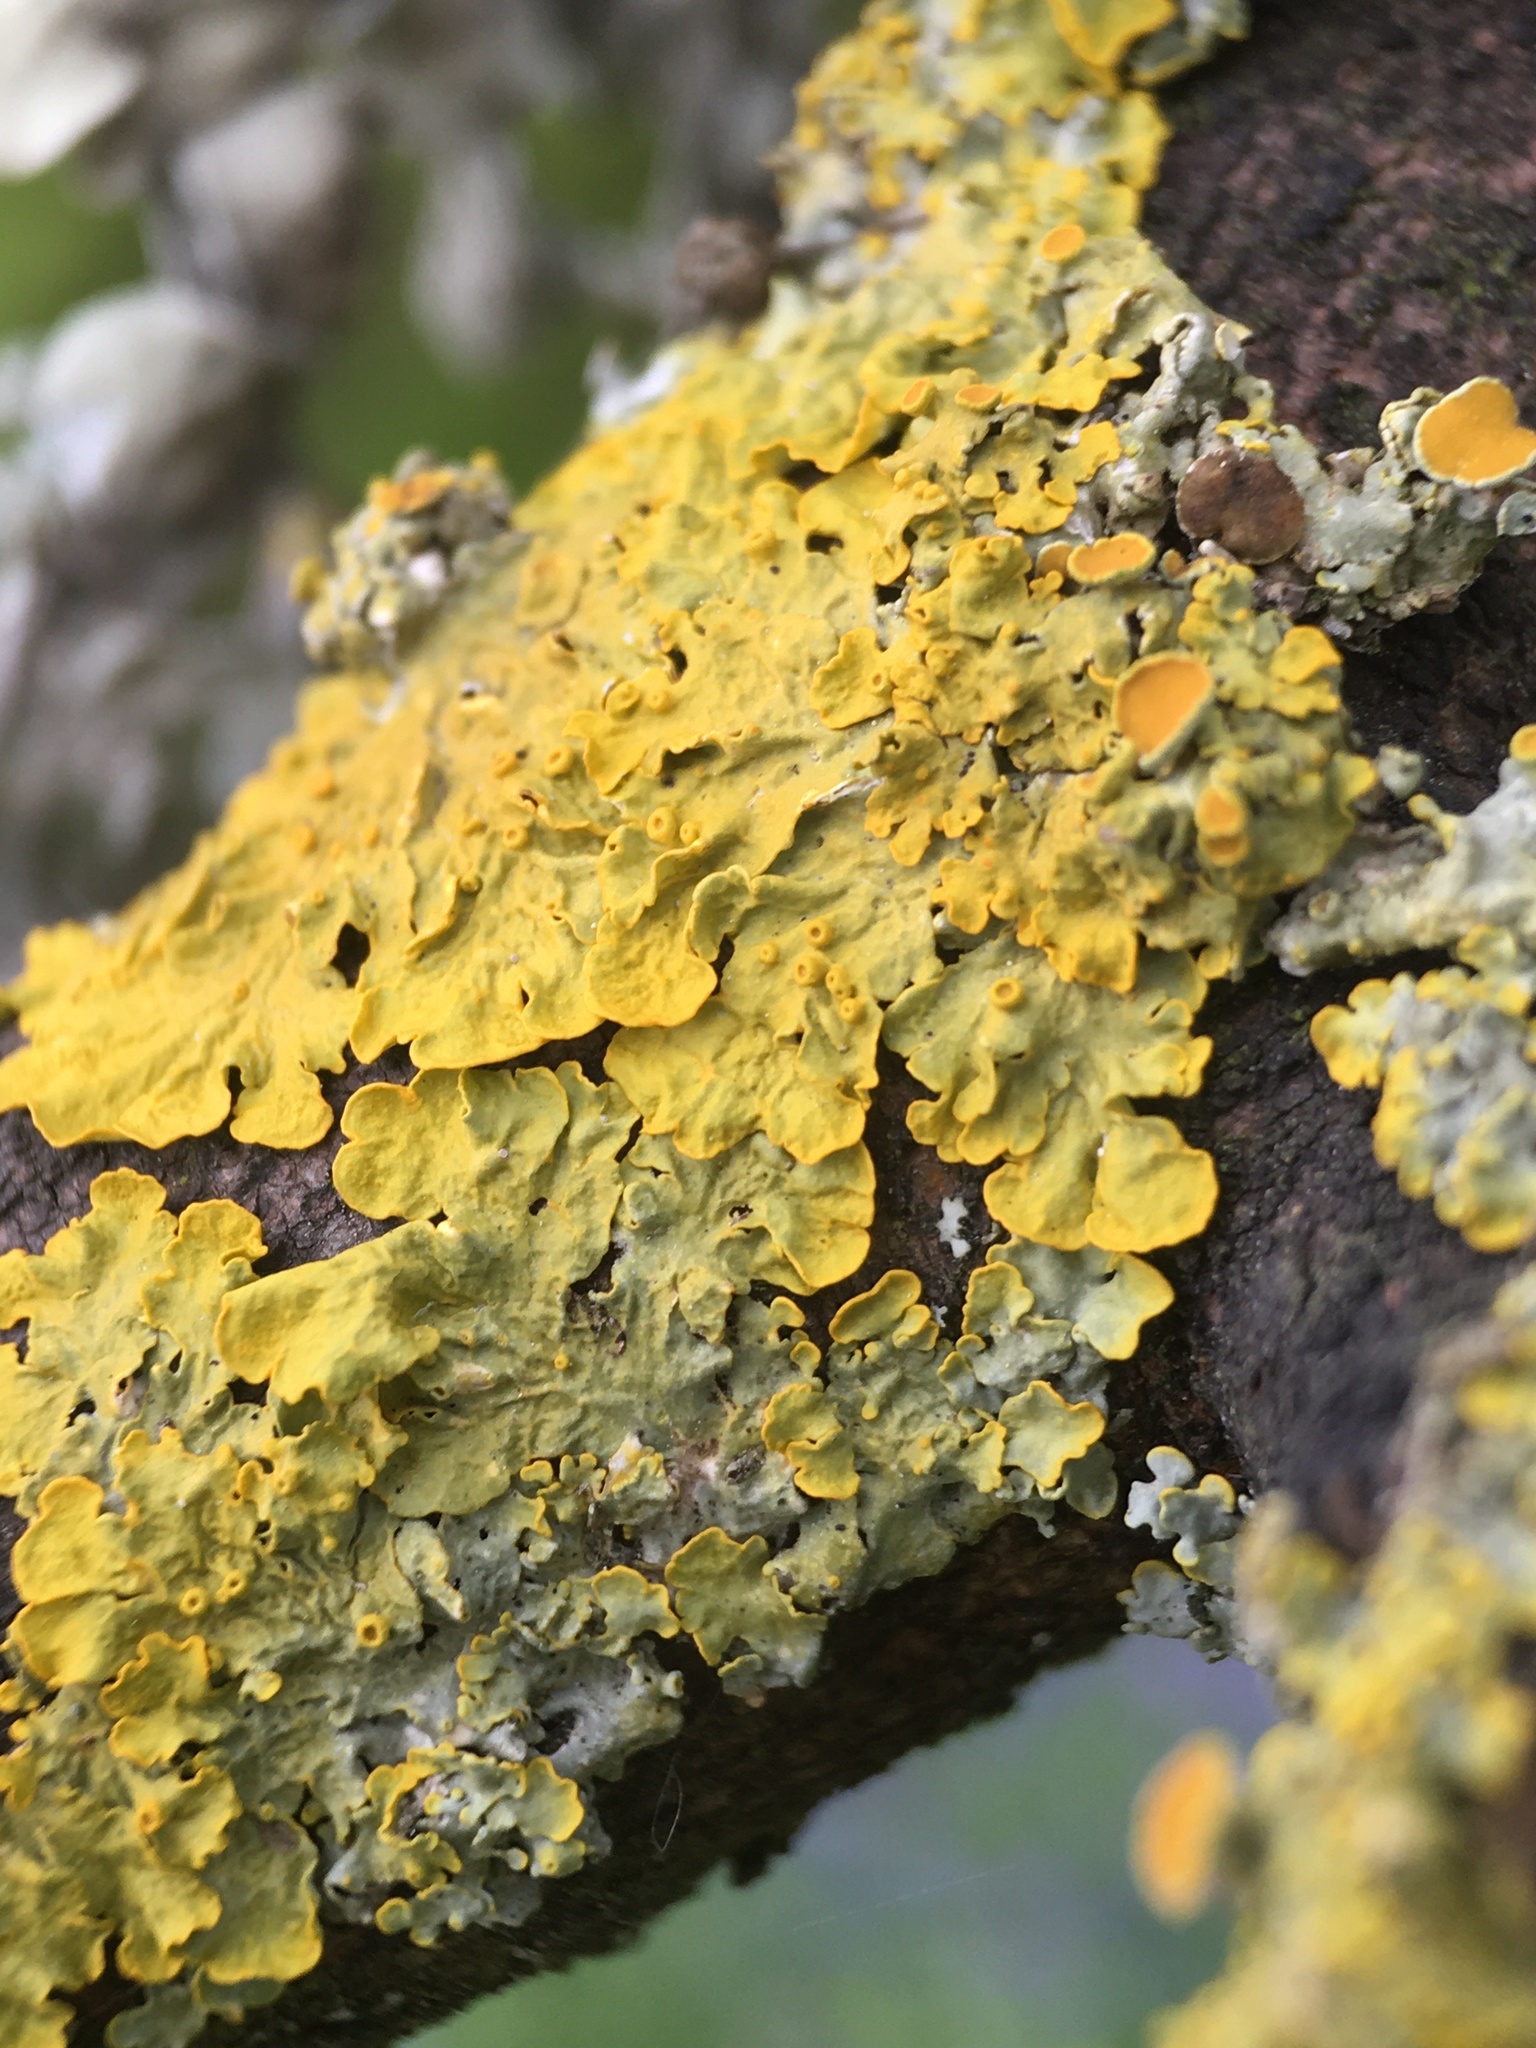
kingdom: Fungi
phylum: Ascomycota
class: Lecanoromycetes
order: Teloschistales
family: Teloschistaceae
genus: Xanthoria
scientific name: Xanthoria parietina
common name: Common orange lichen
